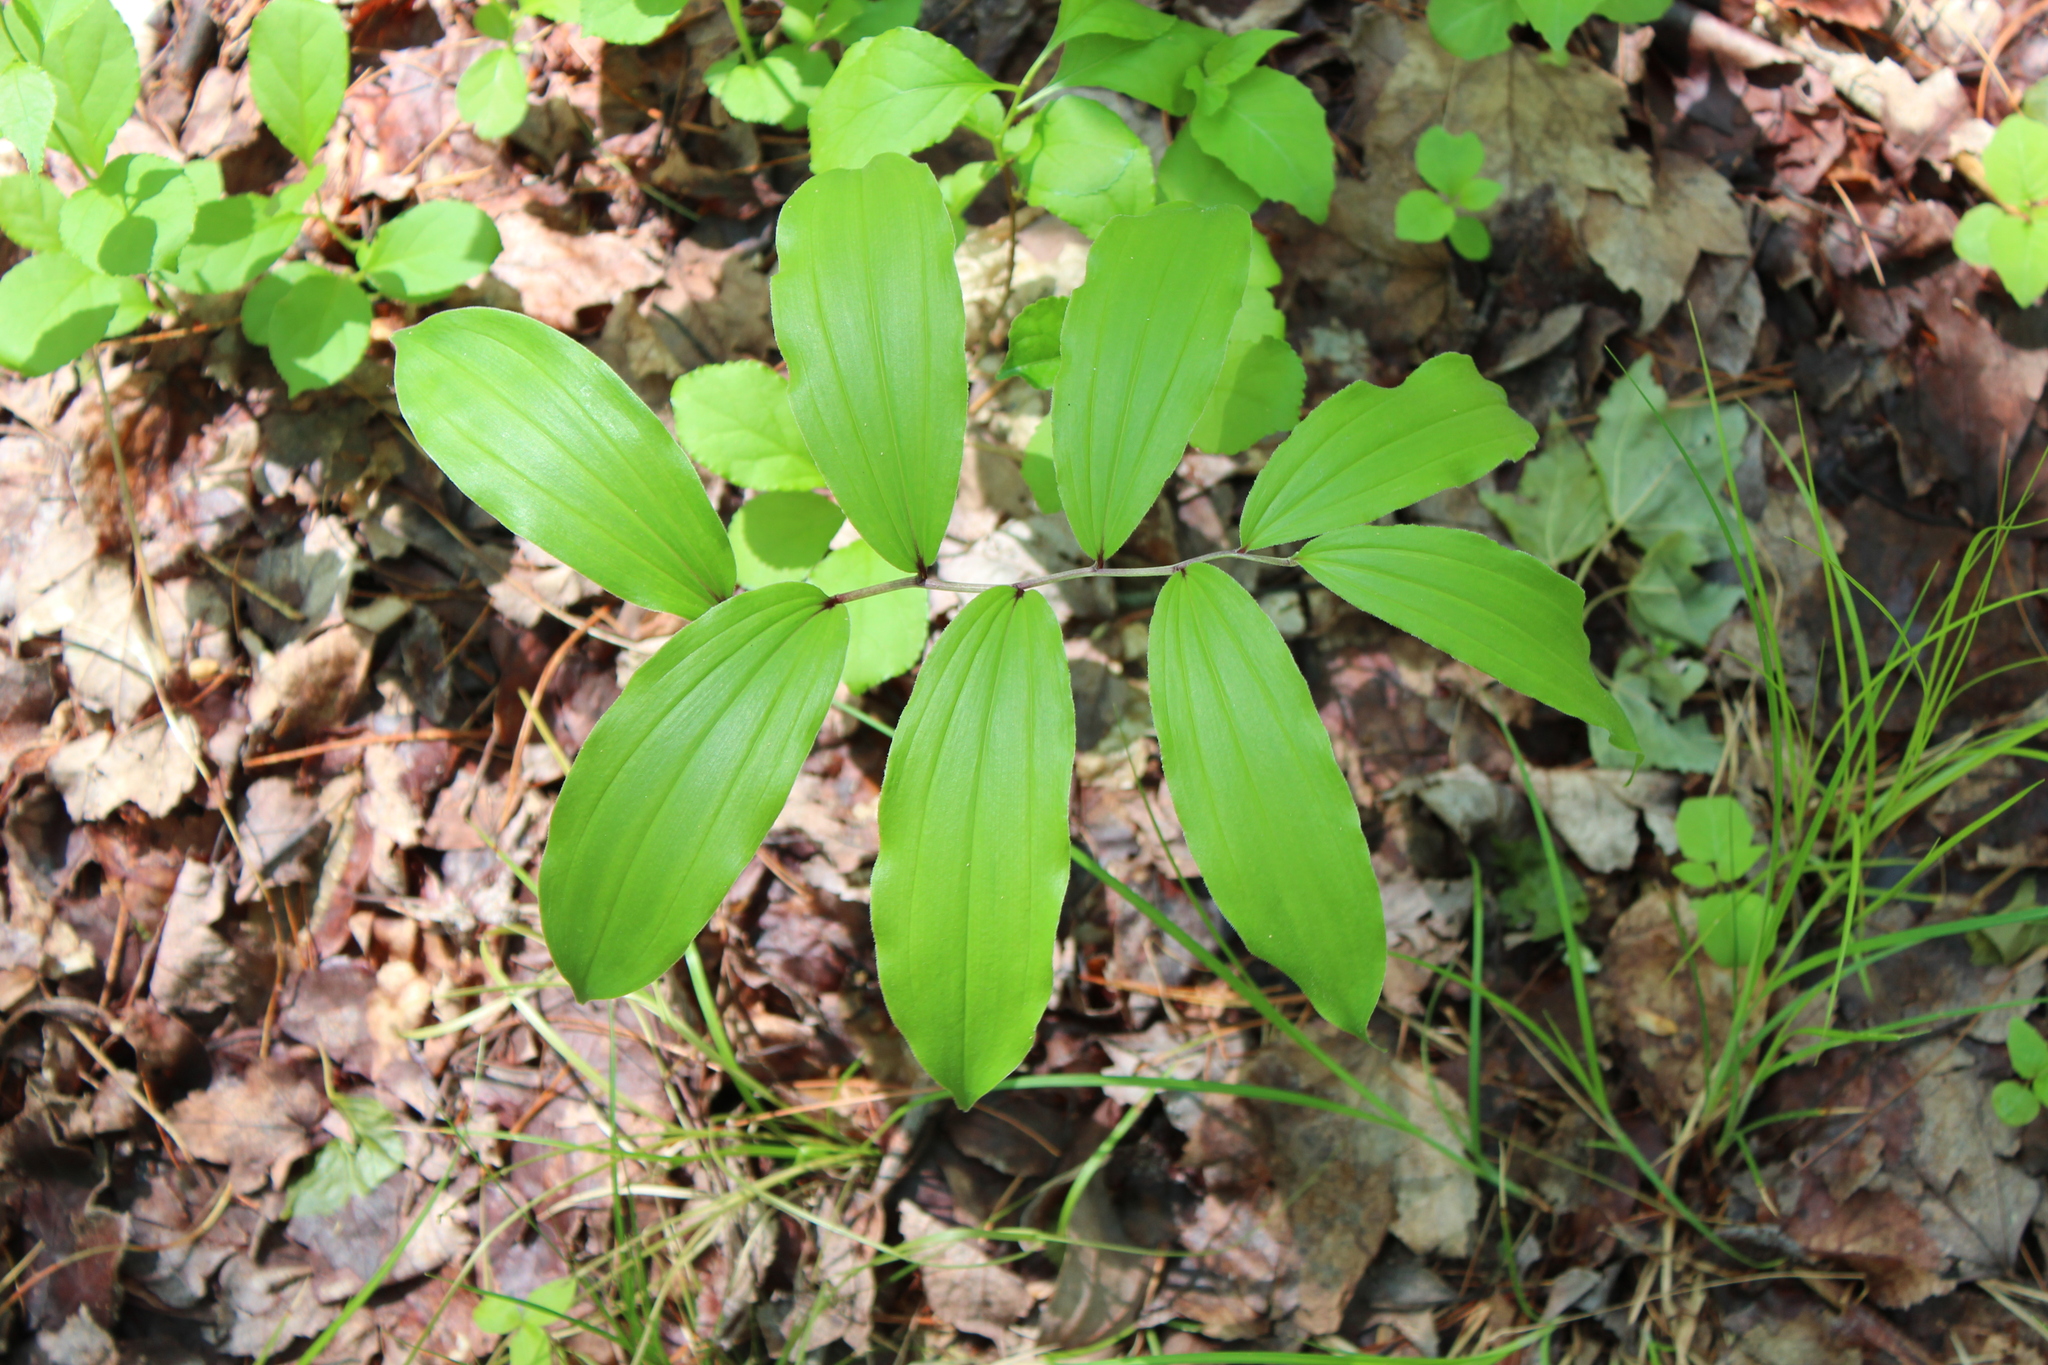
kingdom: Plantae
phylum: Tracheophyta
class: Liliopsida
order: Asparagales
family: Asparagaceae
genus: Maianthemum
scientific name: Maianthemum racemosum
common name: False spikenard
